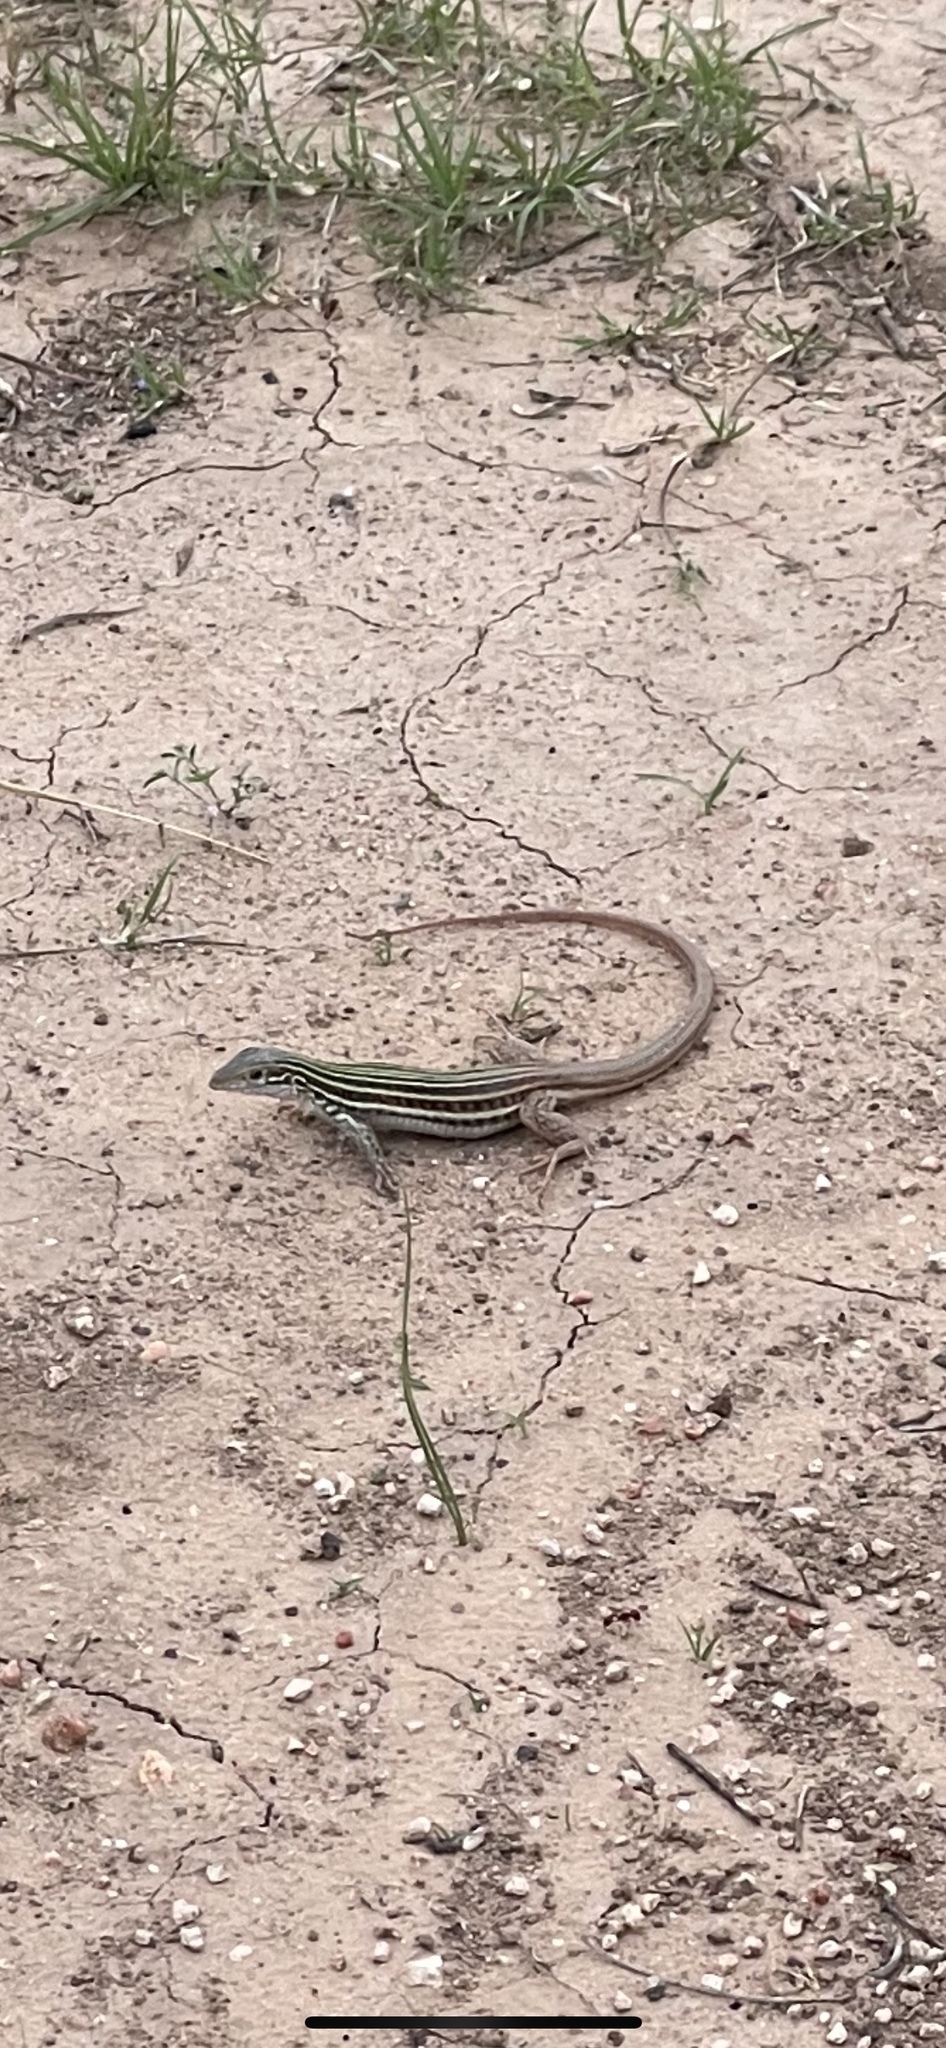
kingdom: Animalia
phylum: Chordata
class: Squamata
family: Teiidae
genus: Aspidoscelis
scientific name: Aspidoscelis gularis
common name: Eastern spotted whiptail
